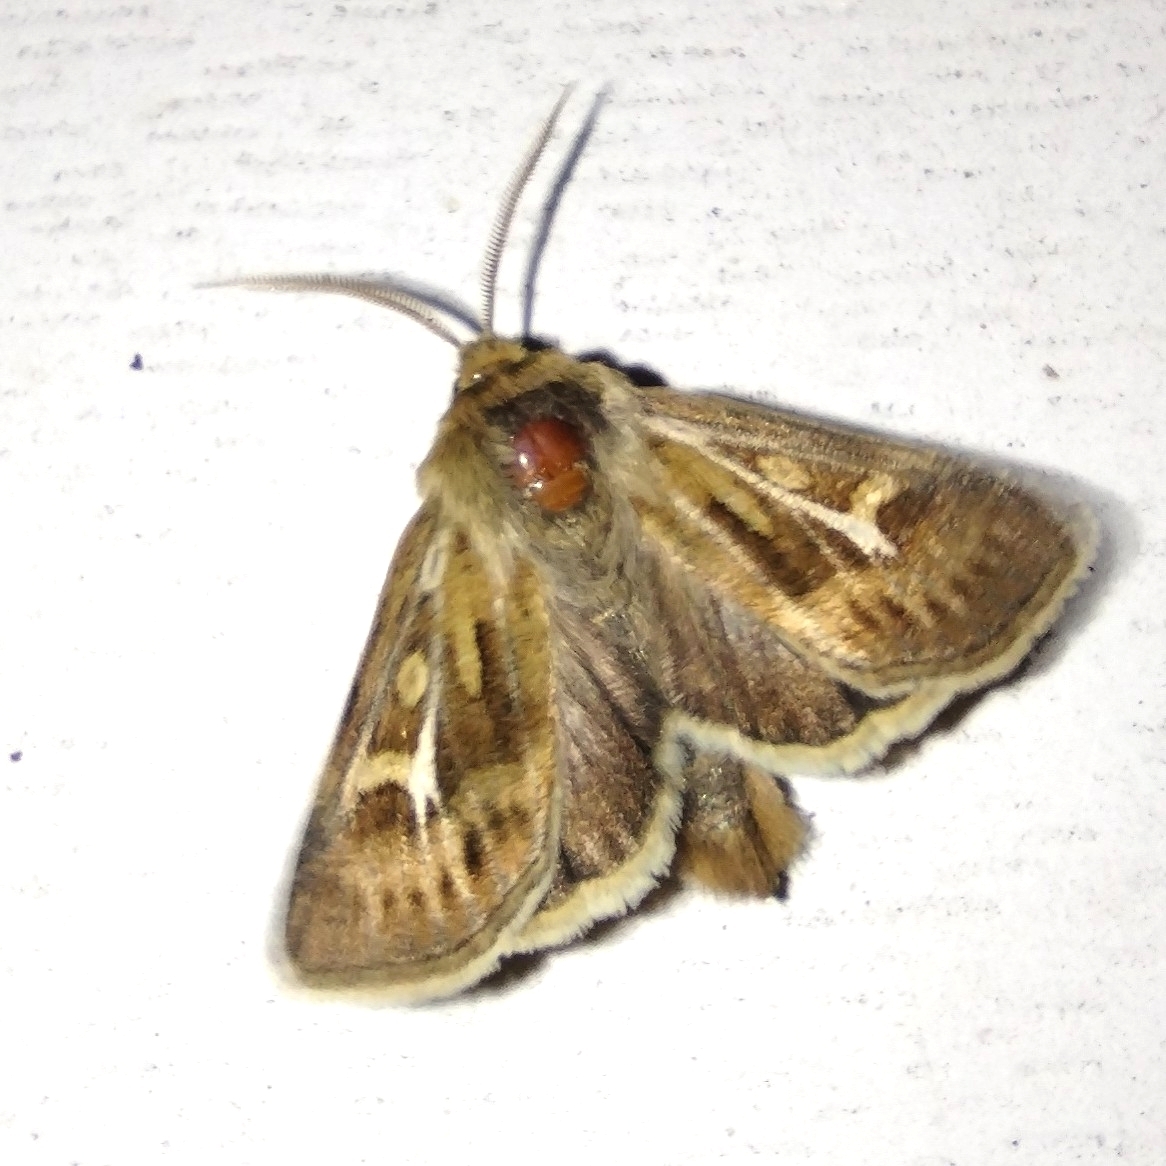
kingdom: Animalia
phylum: Arthropoda
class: Insecta
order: Lepidoptera
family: Noctuidae
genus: Cerapteryx
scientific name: Cerapteryx graminis
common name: Antler moth
